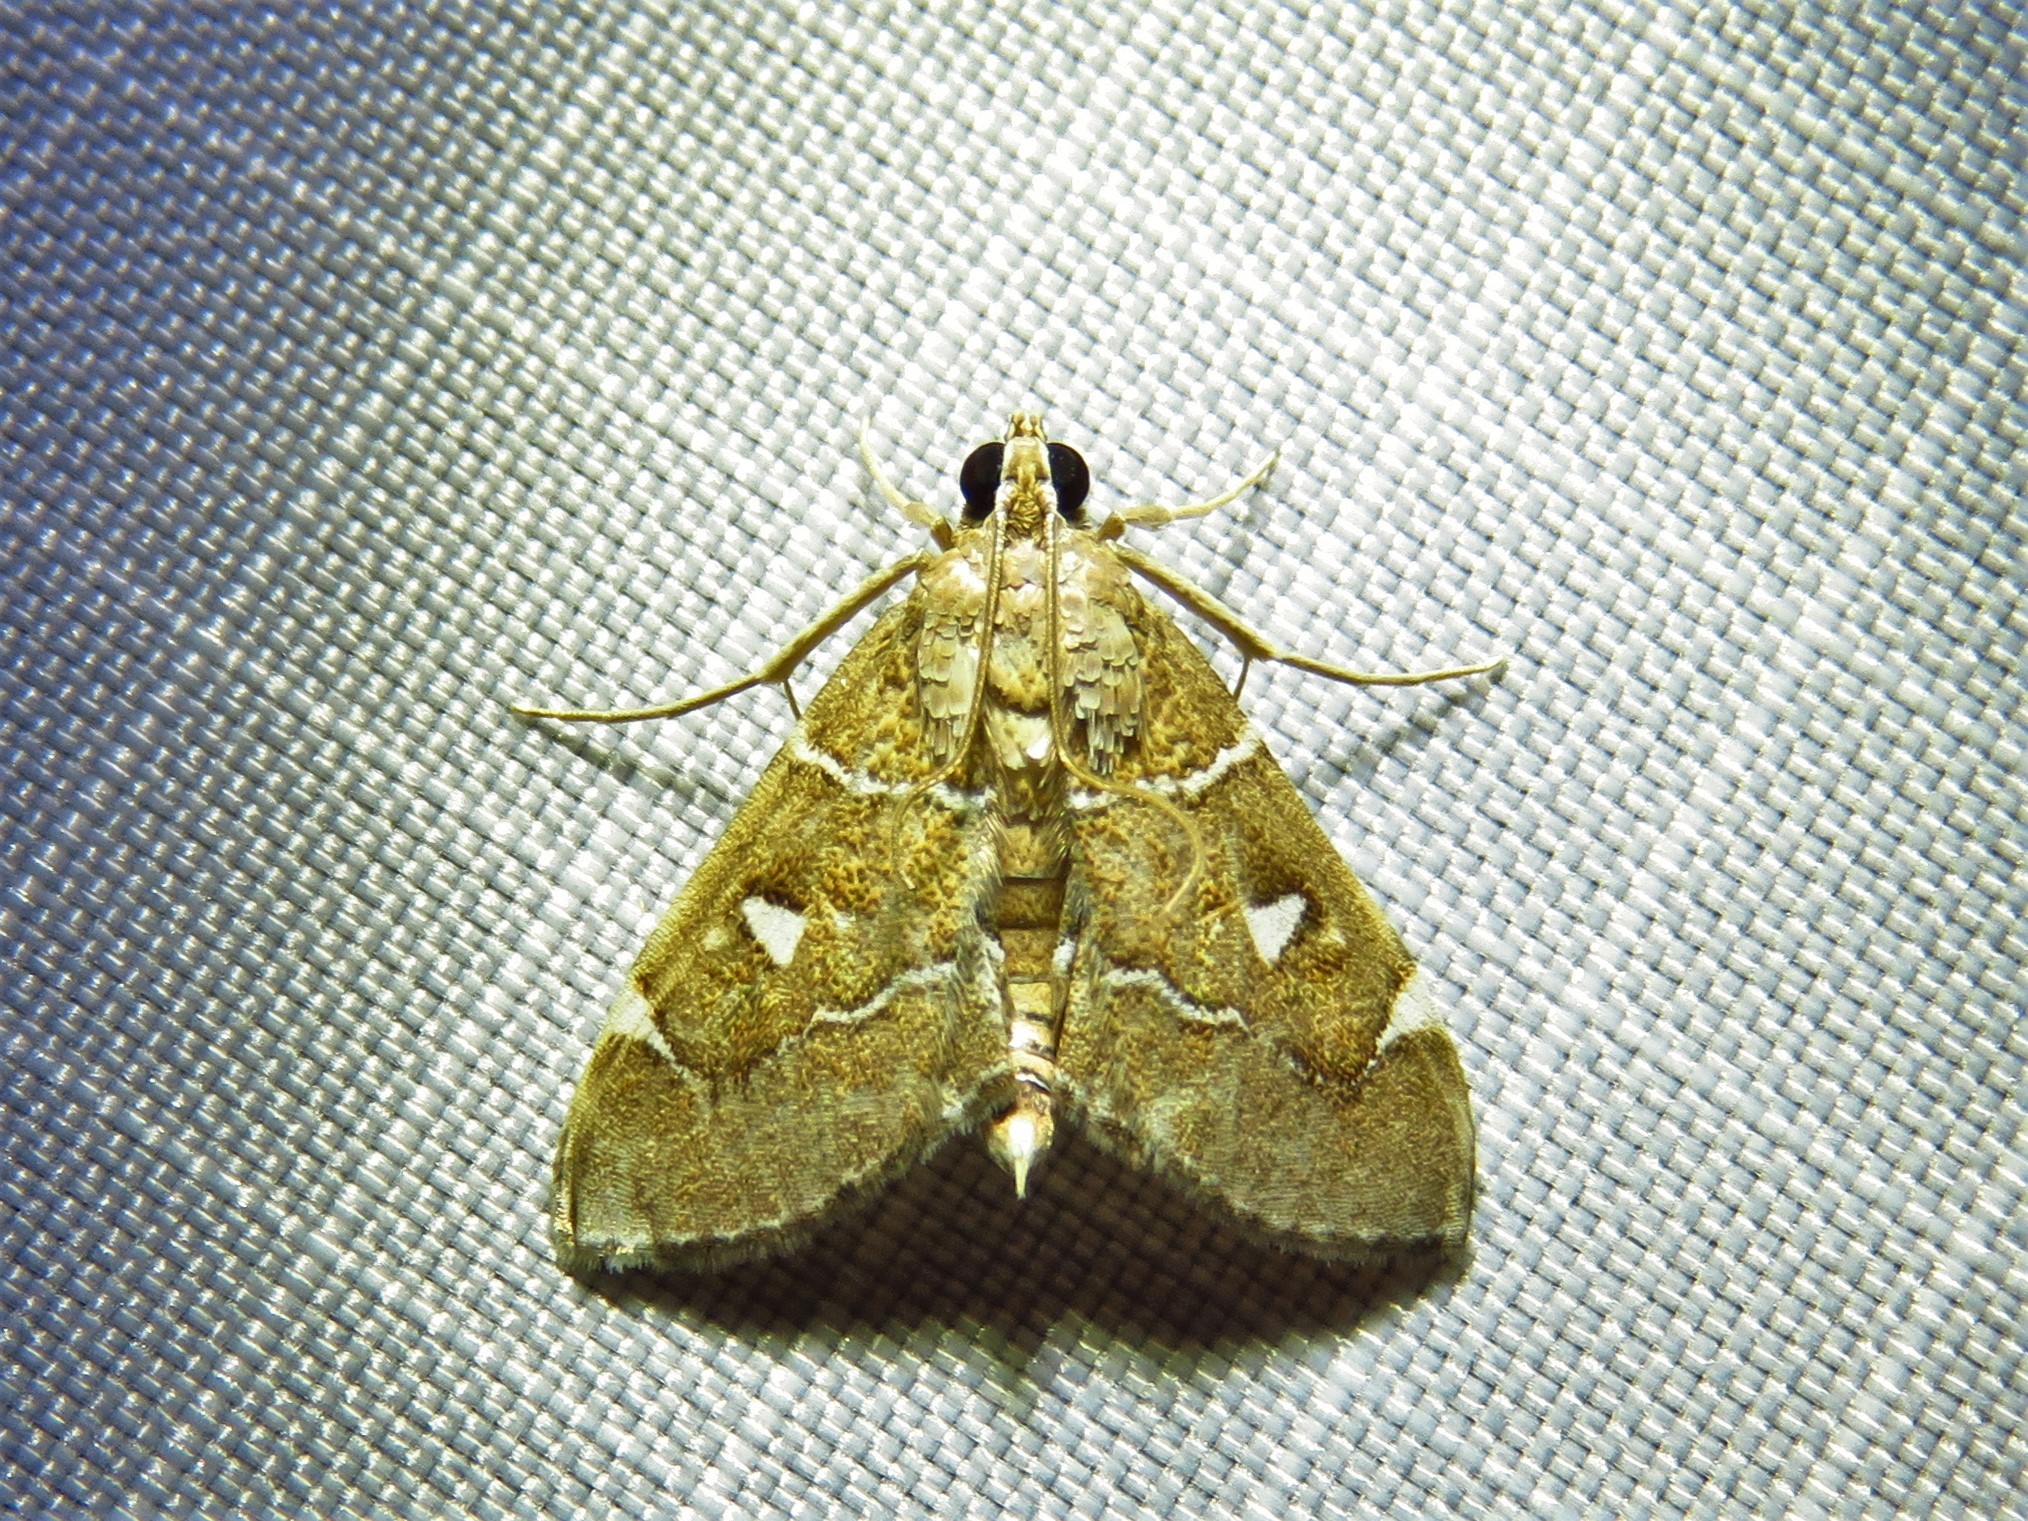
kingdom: Animalia
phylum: Arthropoda
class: Insecta
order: Lepidoptera
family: Crambidae
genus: Lamprosema
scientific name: Lamprosema victoriae
